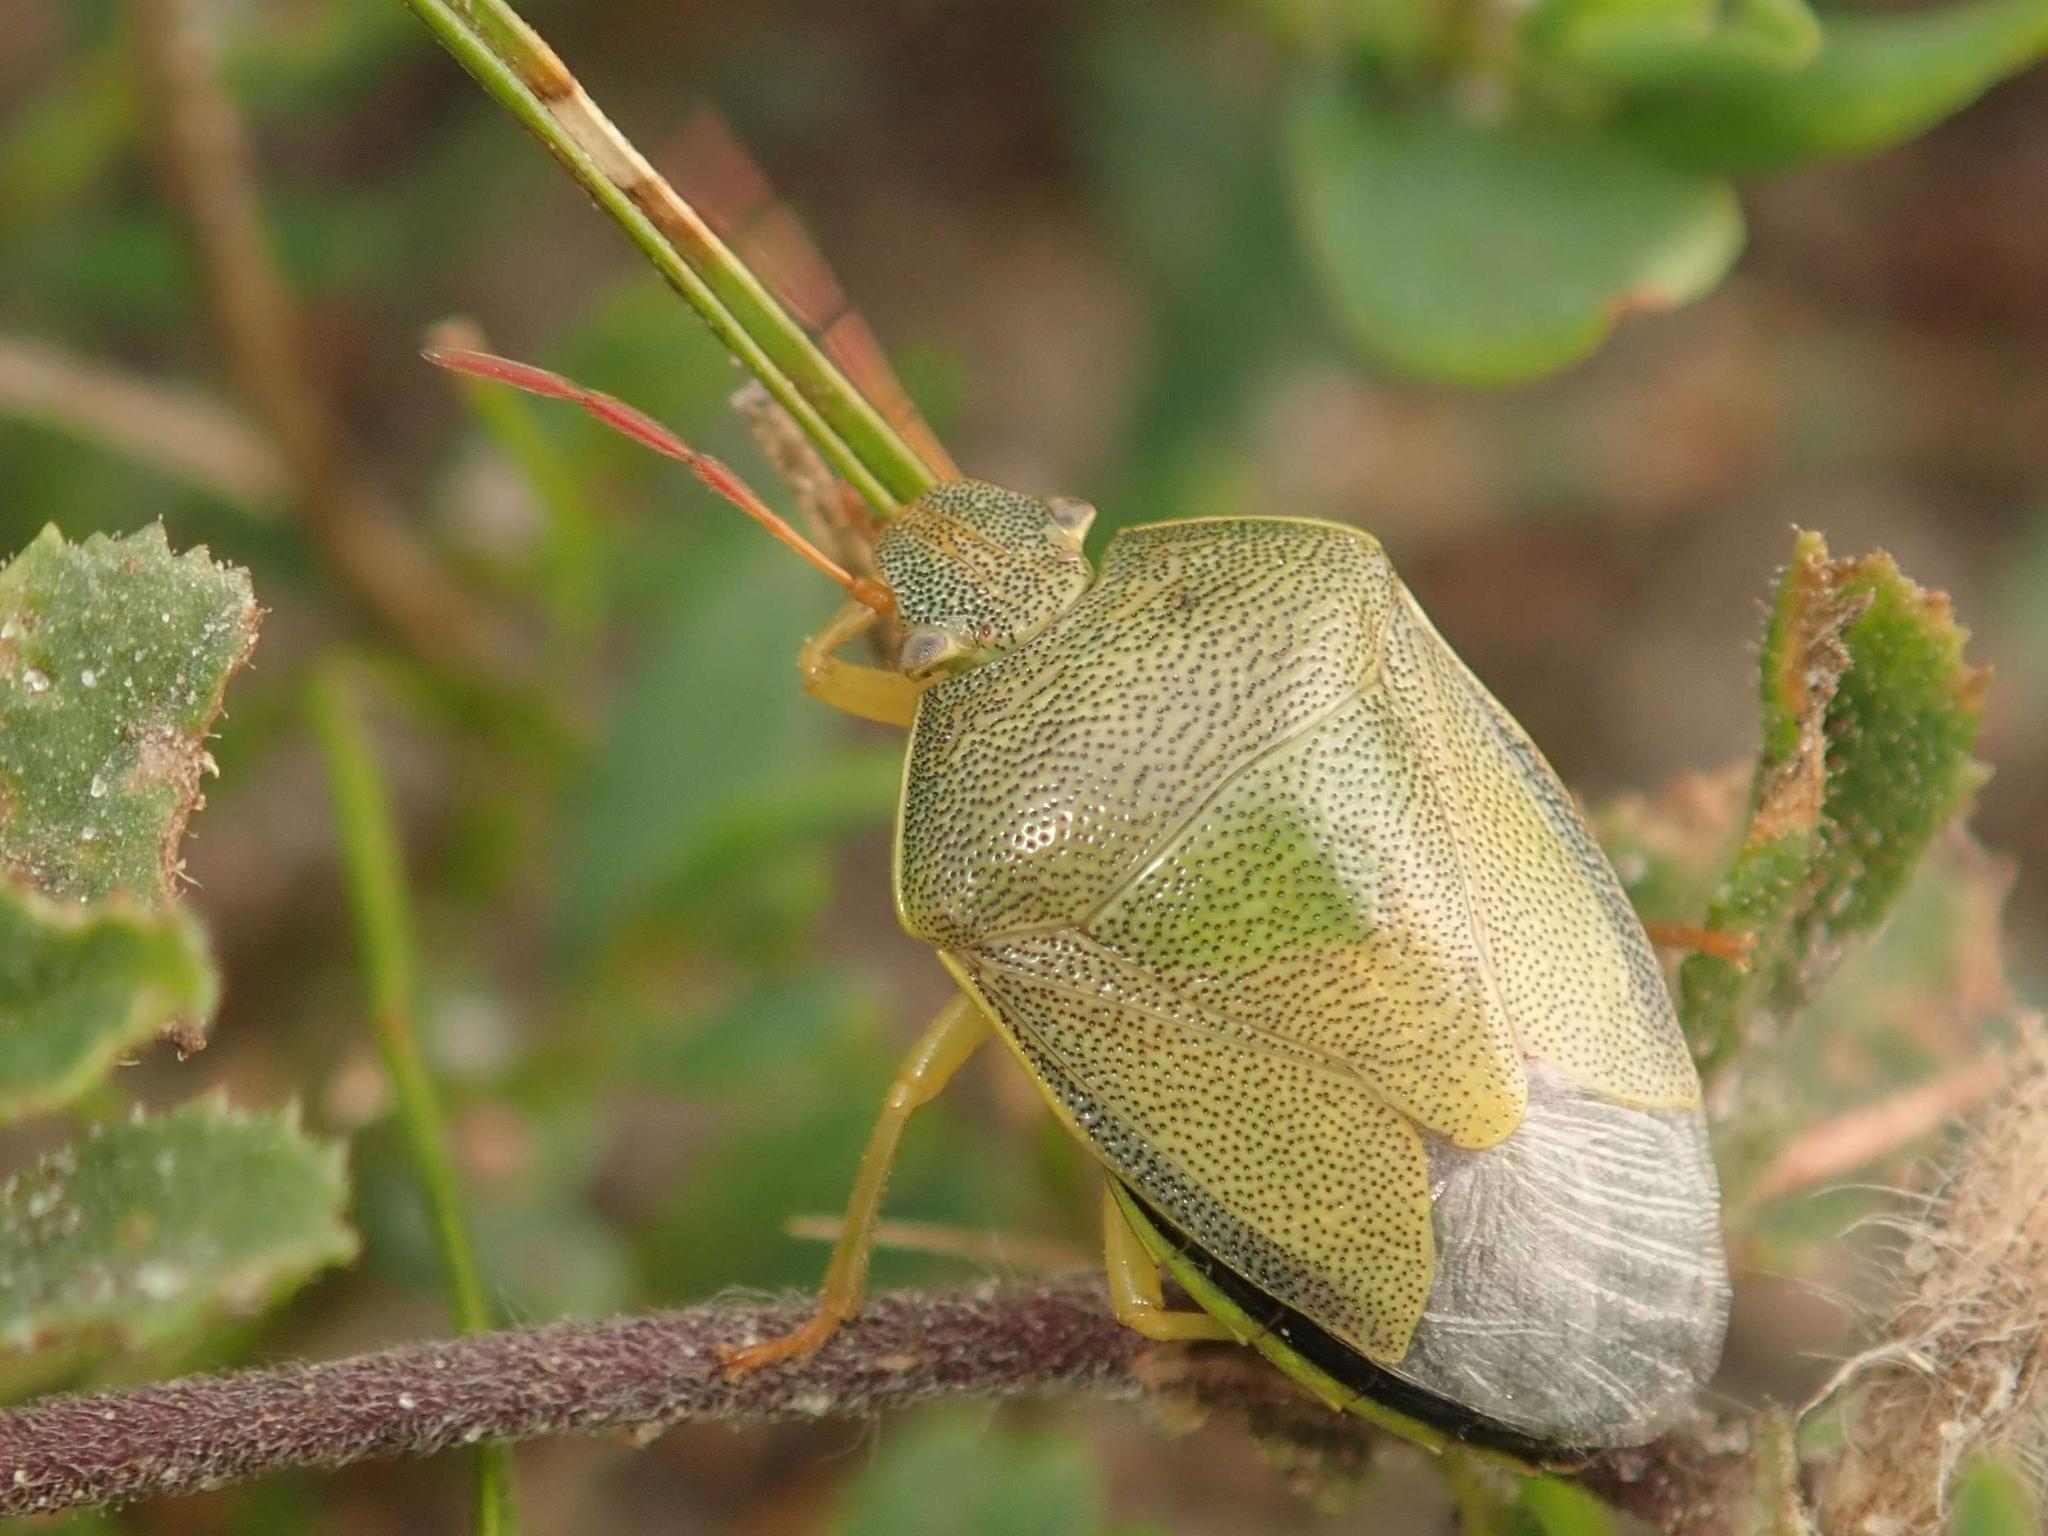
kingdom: Animalia
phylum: Arthropoda
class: Insecta
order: Hemiptera
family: Pentatomidae
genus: Piezodorus
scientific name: Piezodorus lituratus
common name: Stink bug
